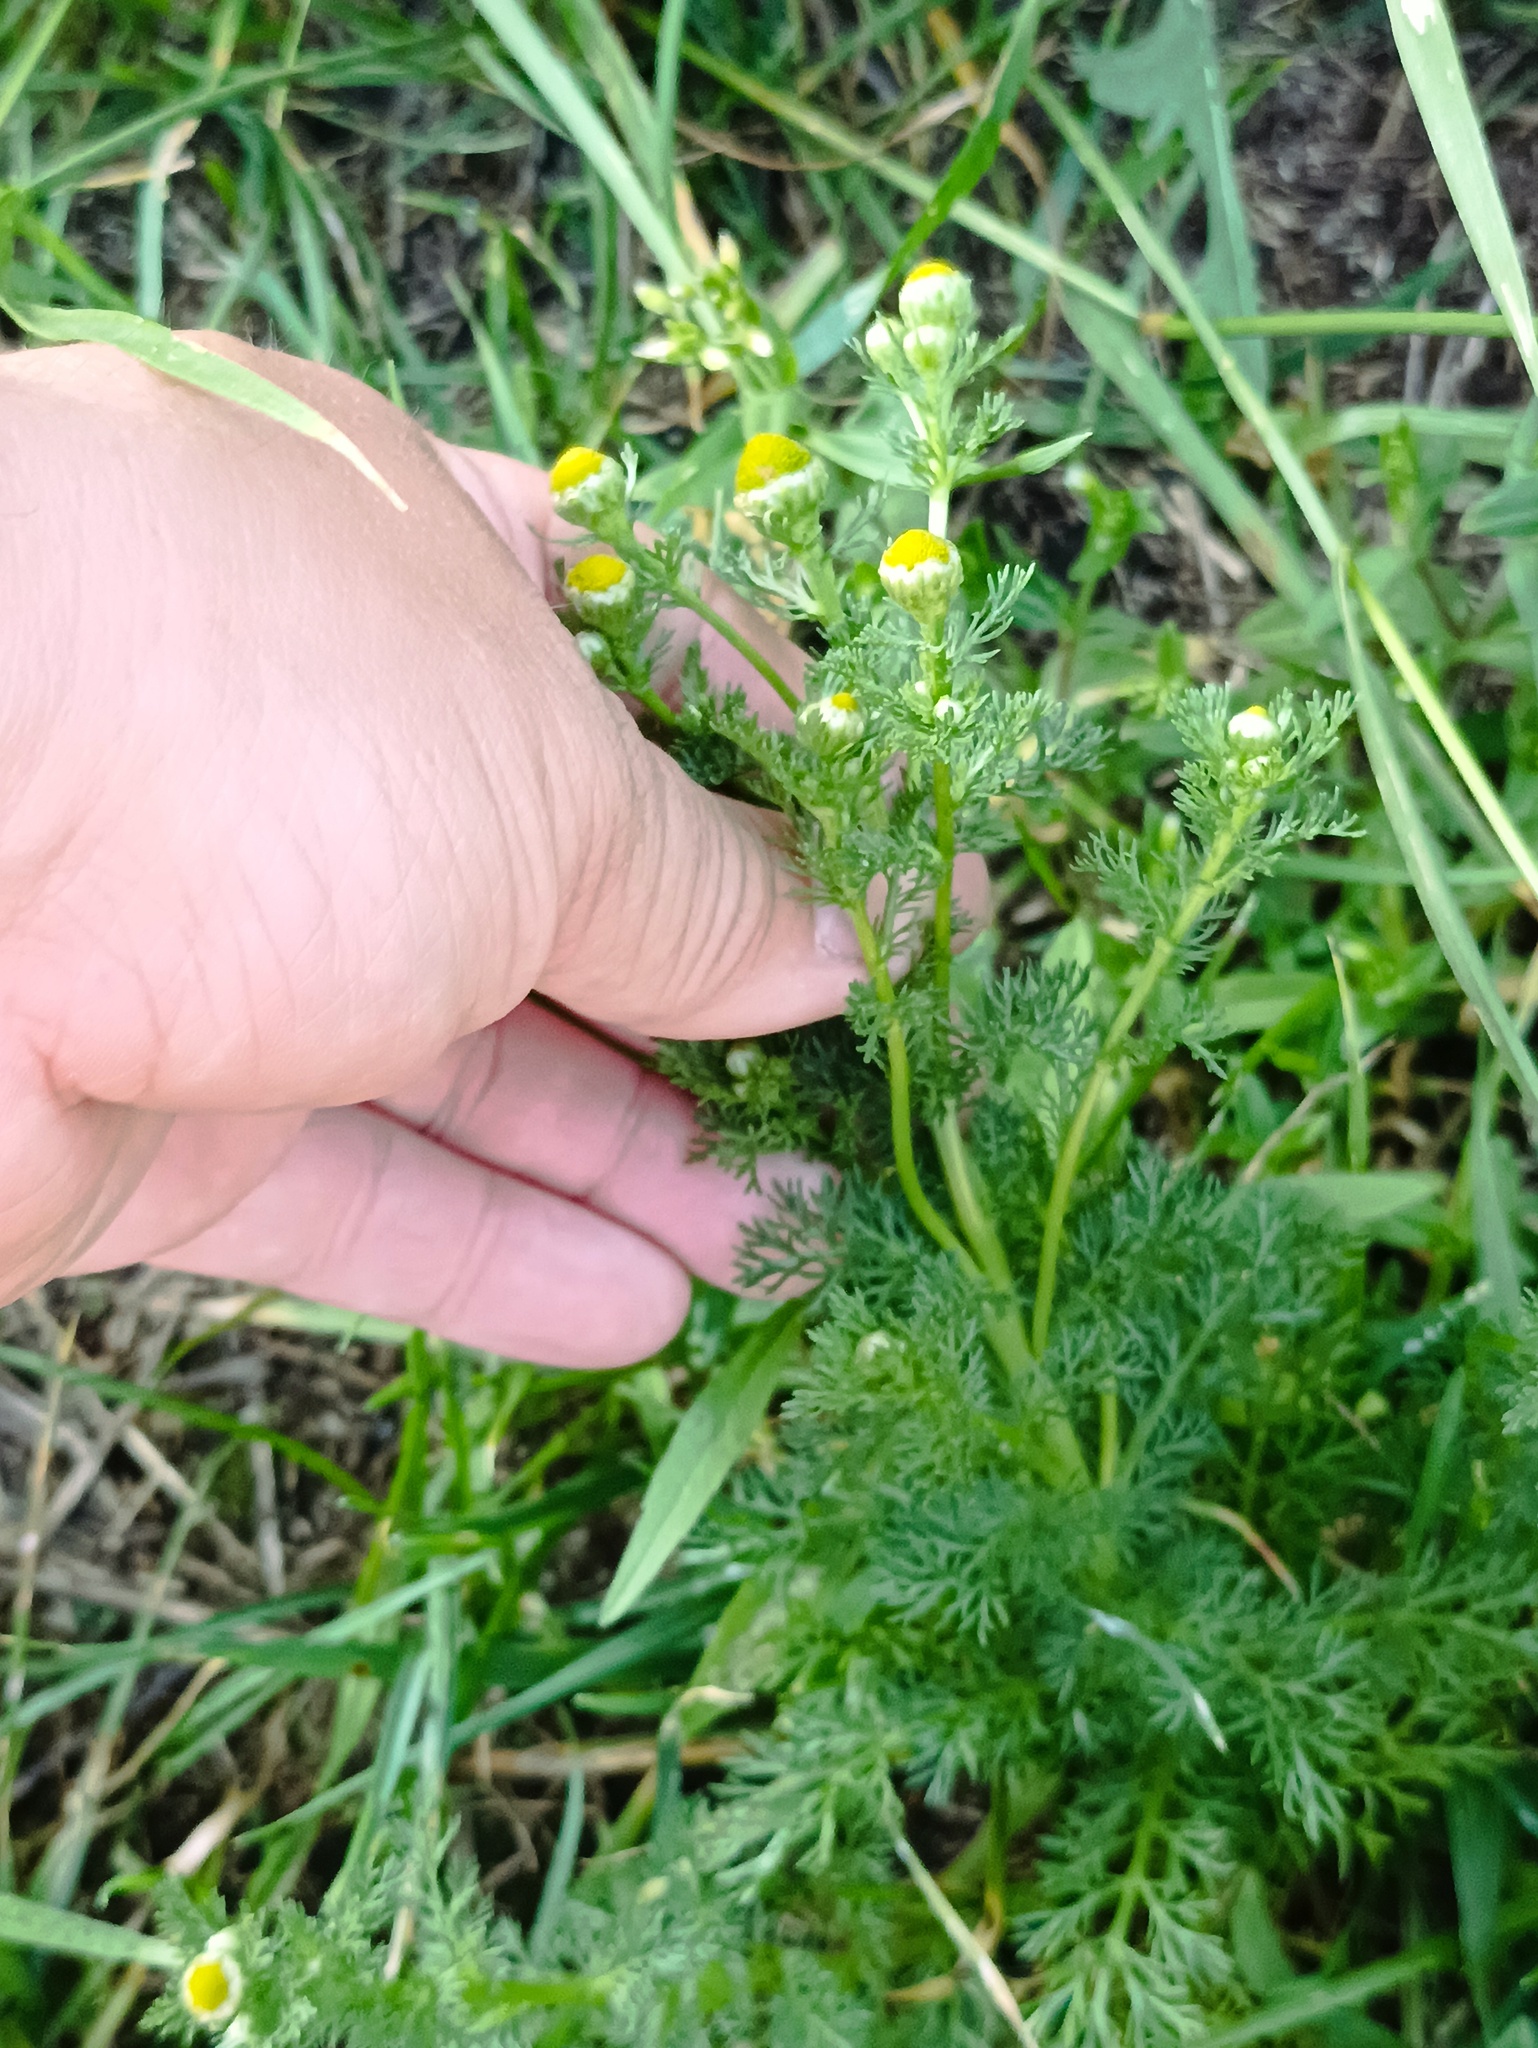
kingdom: Plantae
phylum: Tracheophyta
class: Magnoliopsida
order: Asterales
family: Asteraceae
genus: Matricaria
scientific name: Matricaria discoidea
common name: Disc mayweed
